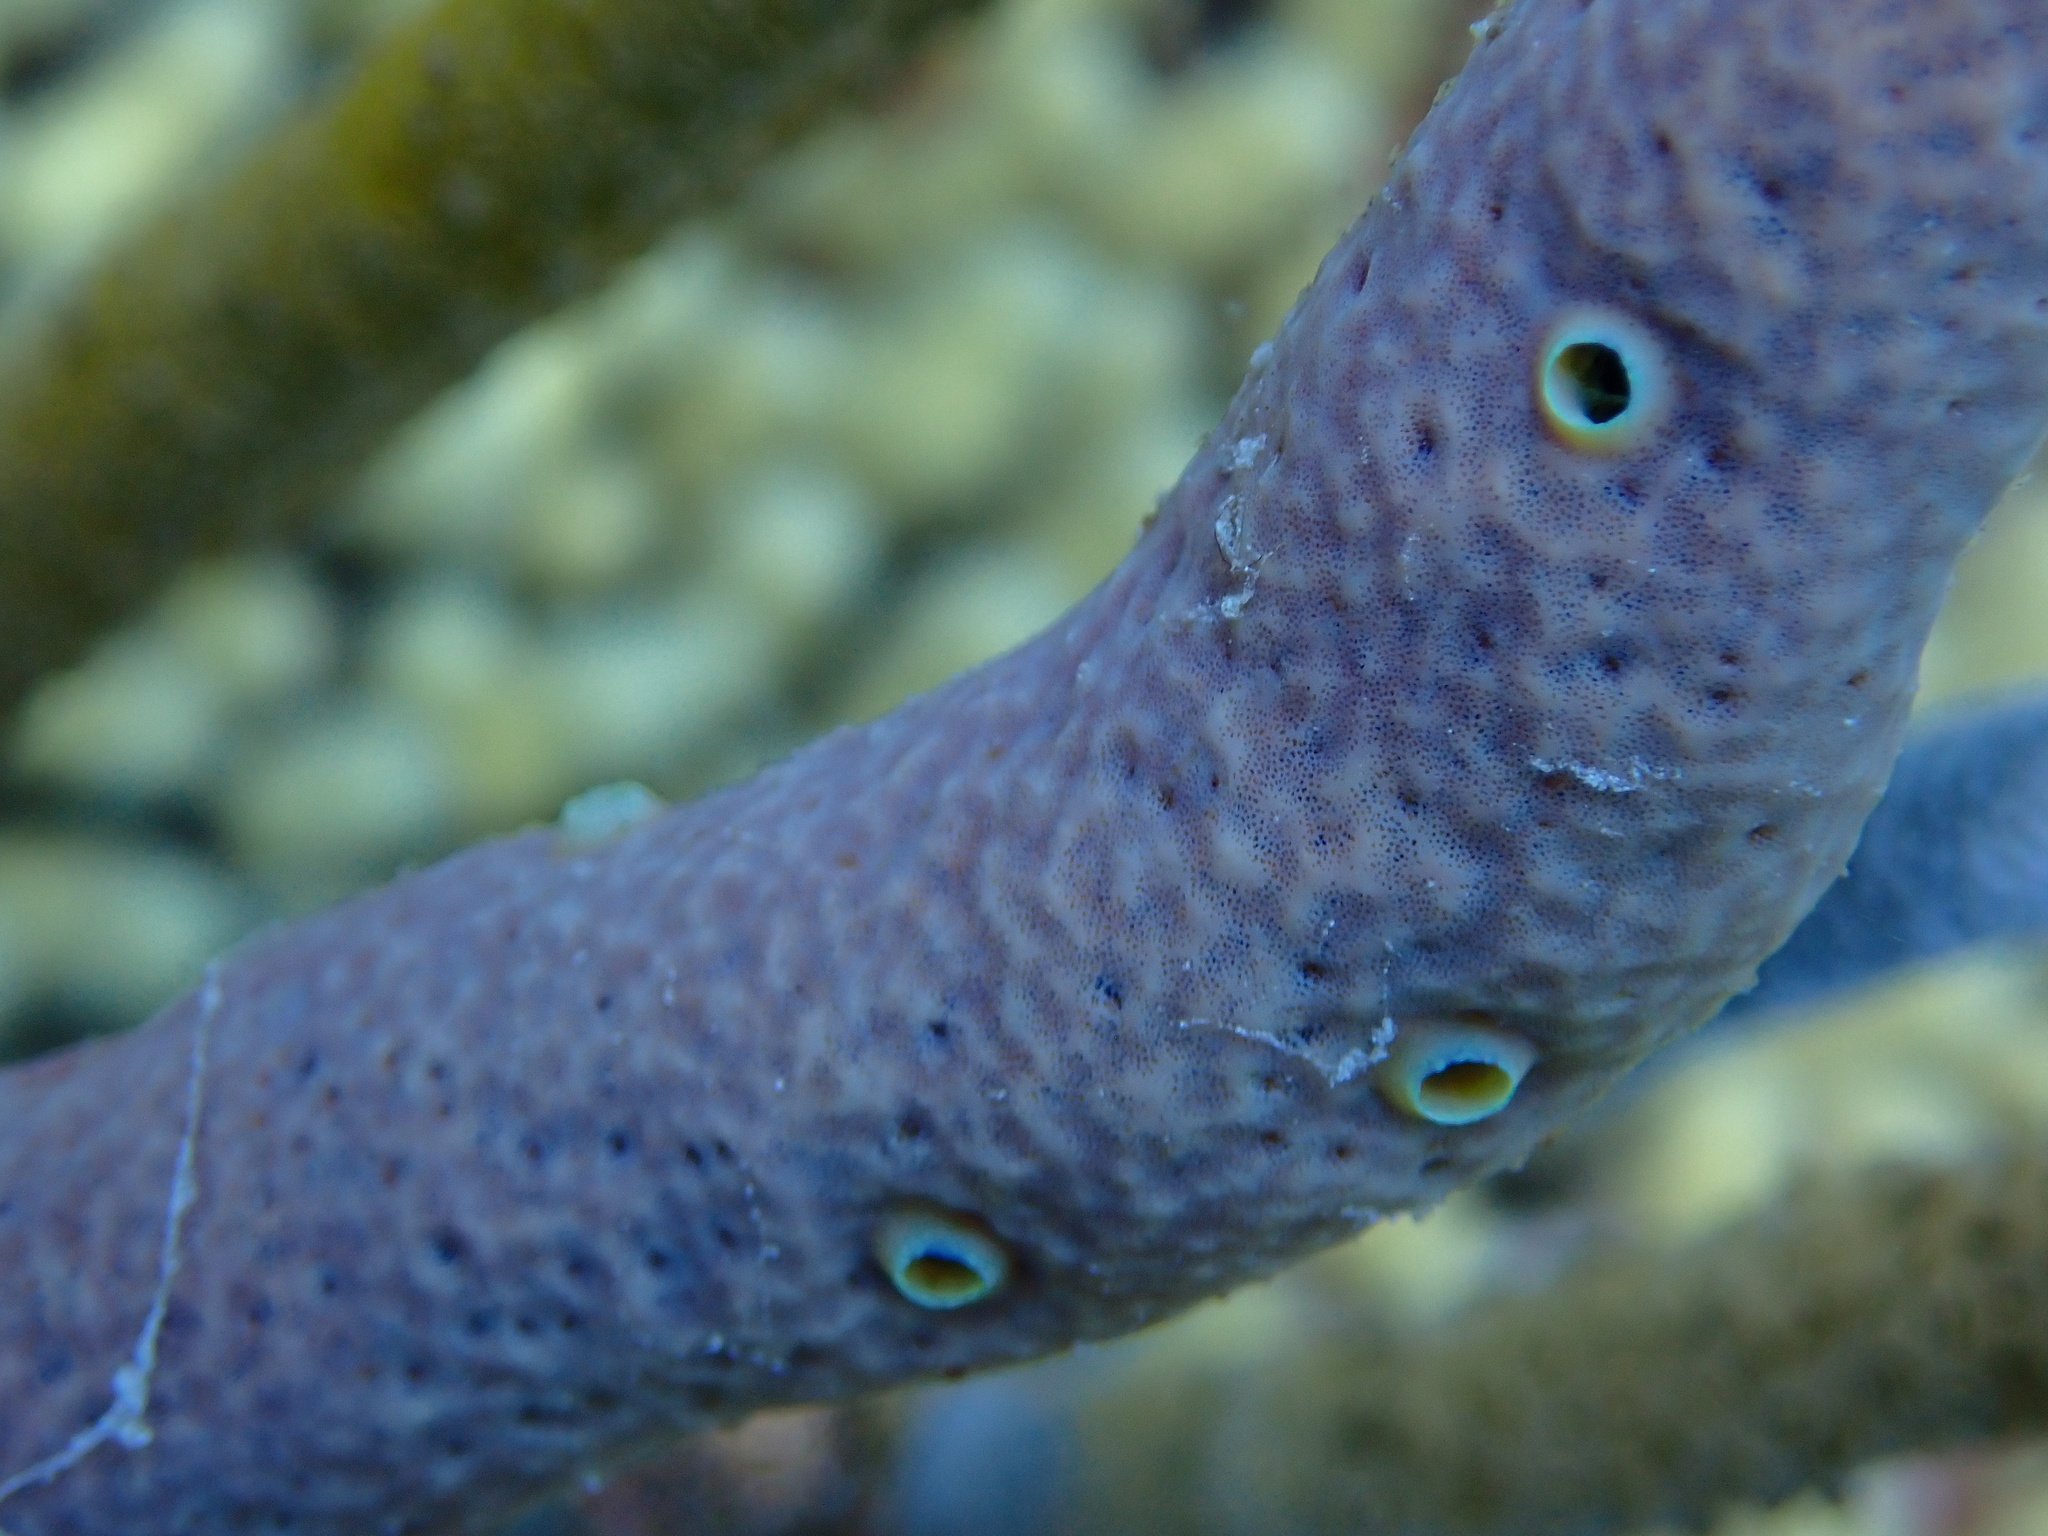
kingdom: Animalia
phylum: Porifera
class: Demospongiae
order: Verongiida
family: Aplysinidae
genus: Aplysina
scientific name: Aplysina cauliformis
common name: Branching candle sponge
